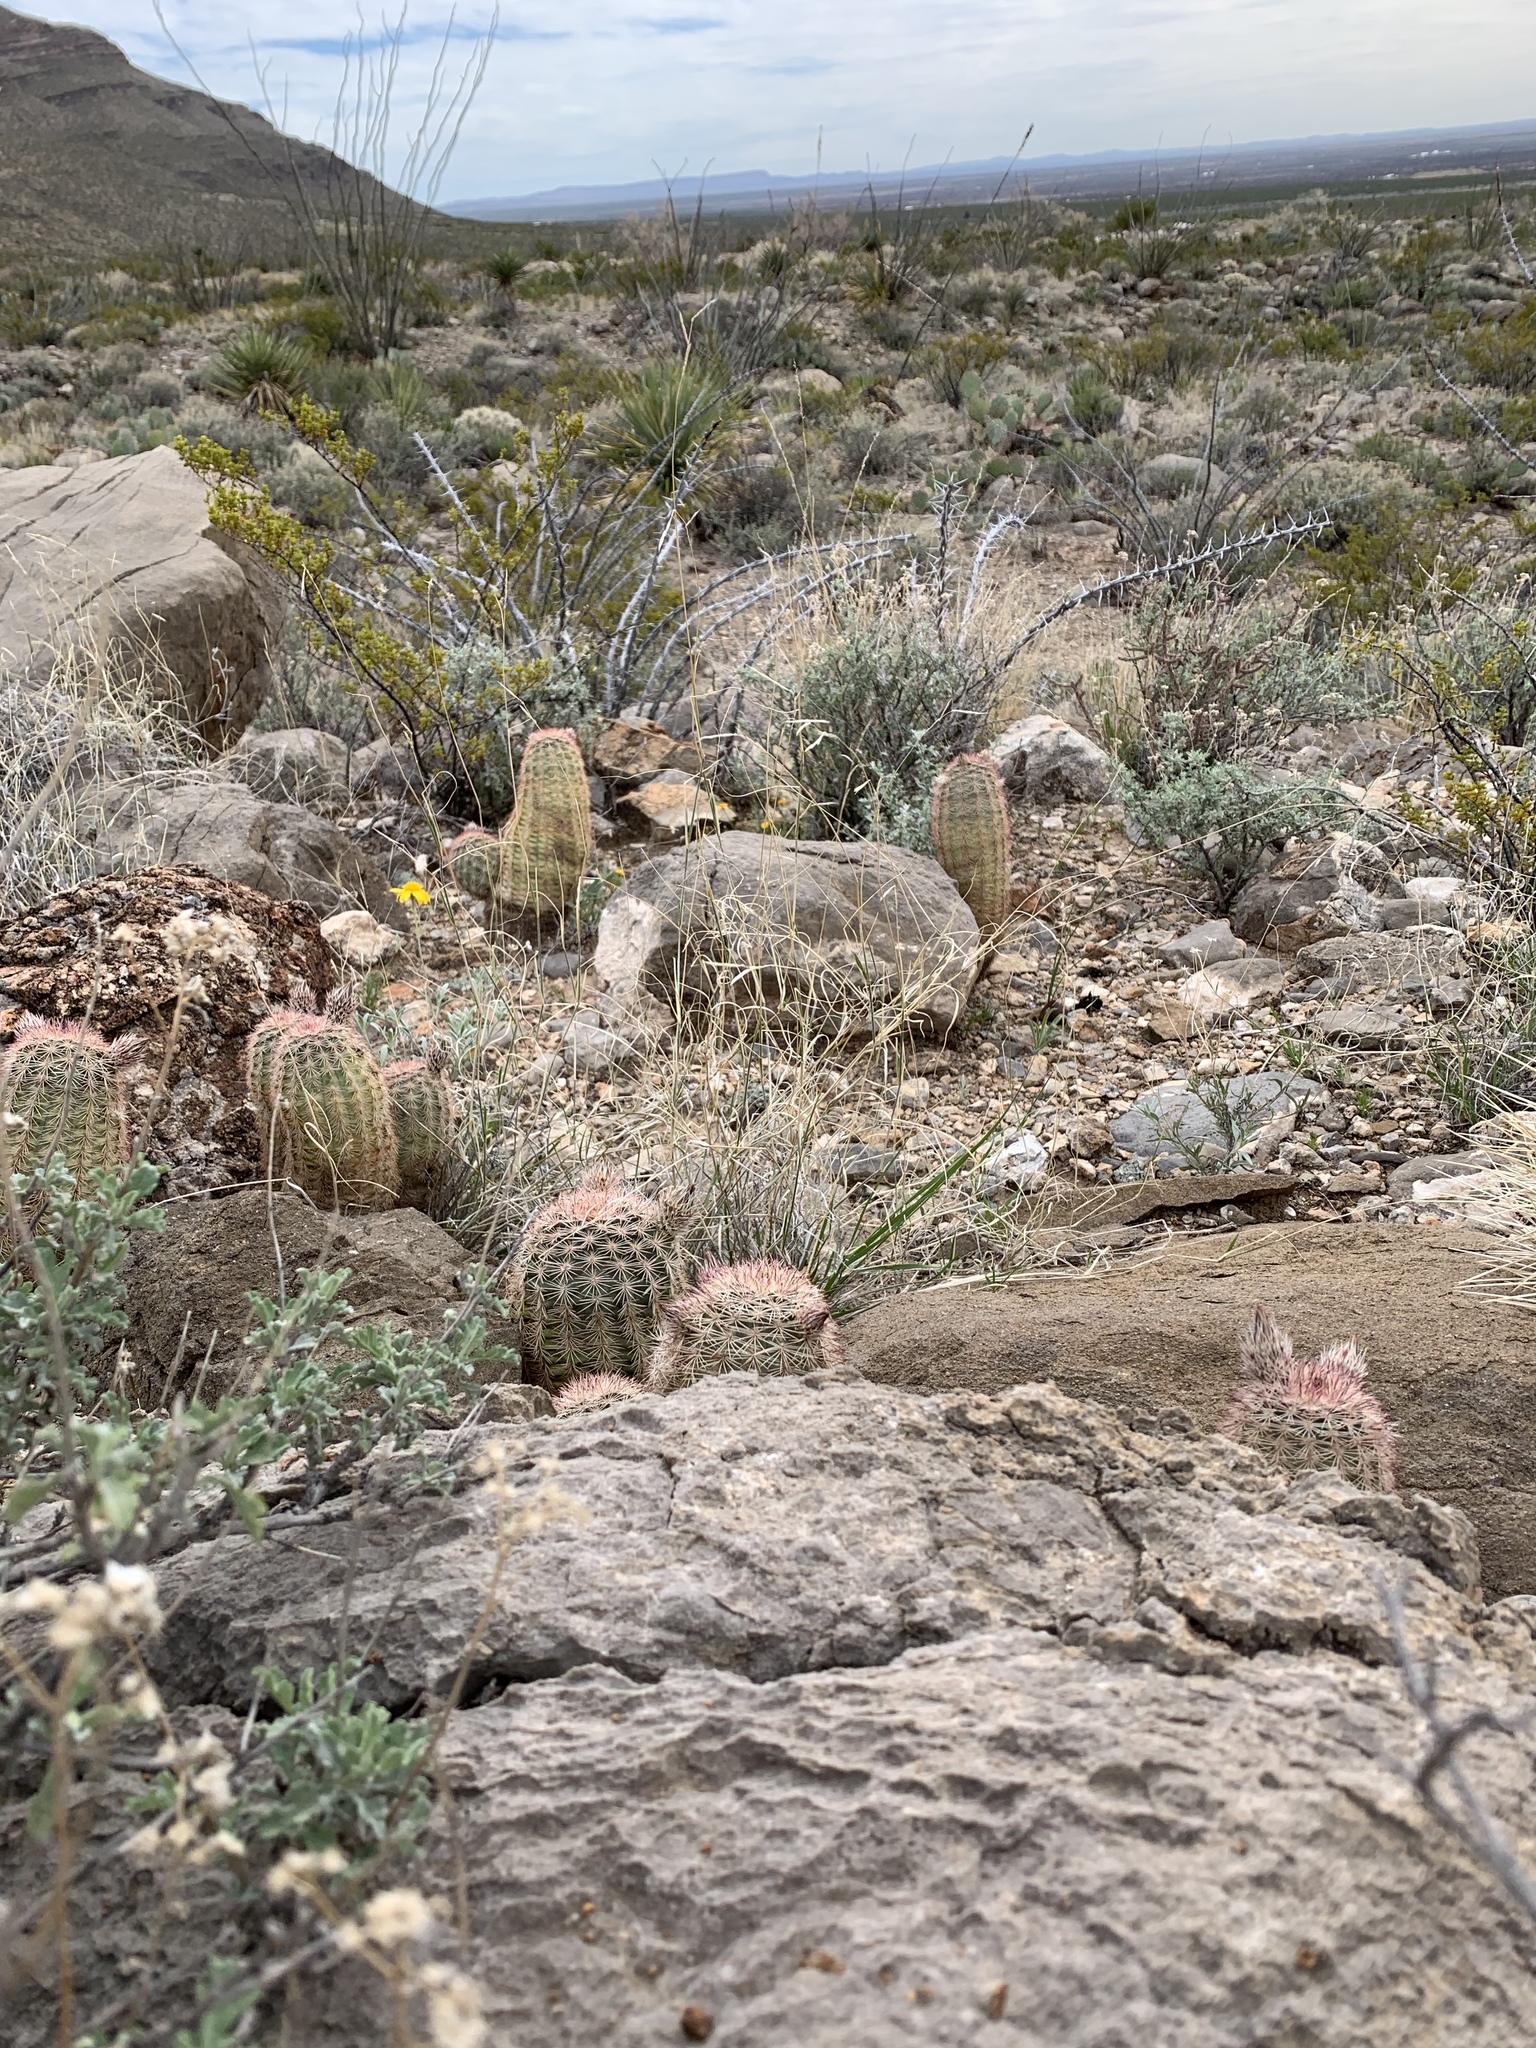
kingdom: Plantae
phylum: Tracheophyta
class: Magnoliopsida
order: Caryophyllales
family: Cactaceae
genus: Echinocereus
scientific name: Echinocereus dasyacanthus
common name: Spiny hedgehog cactus
